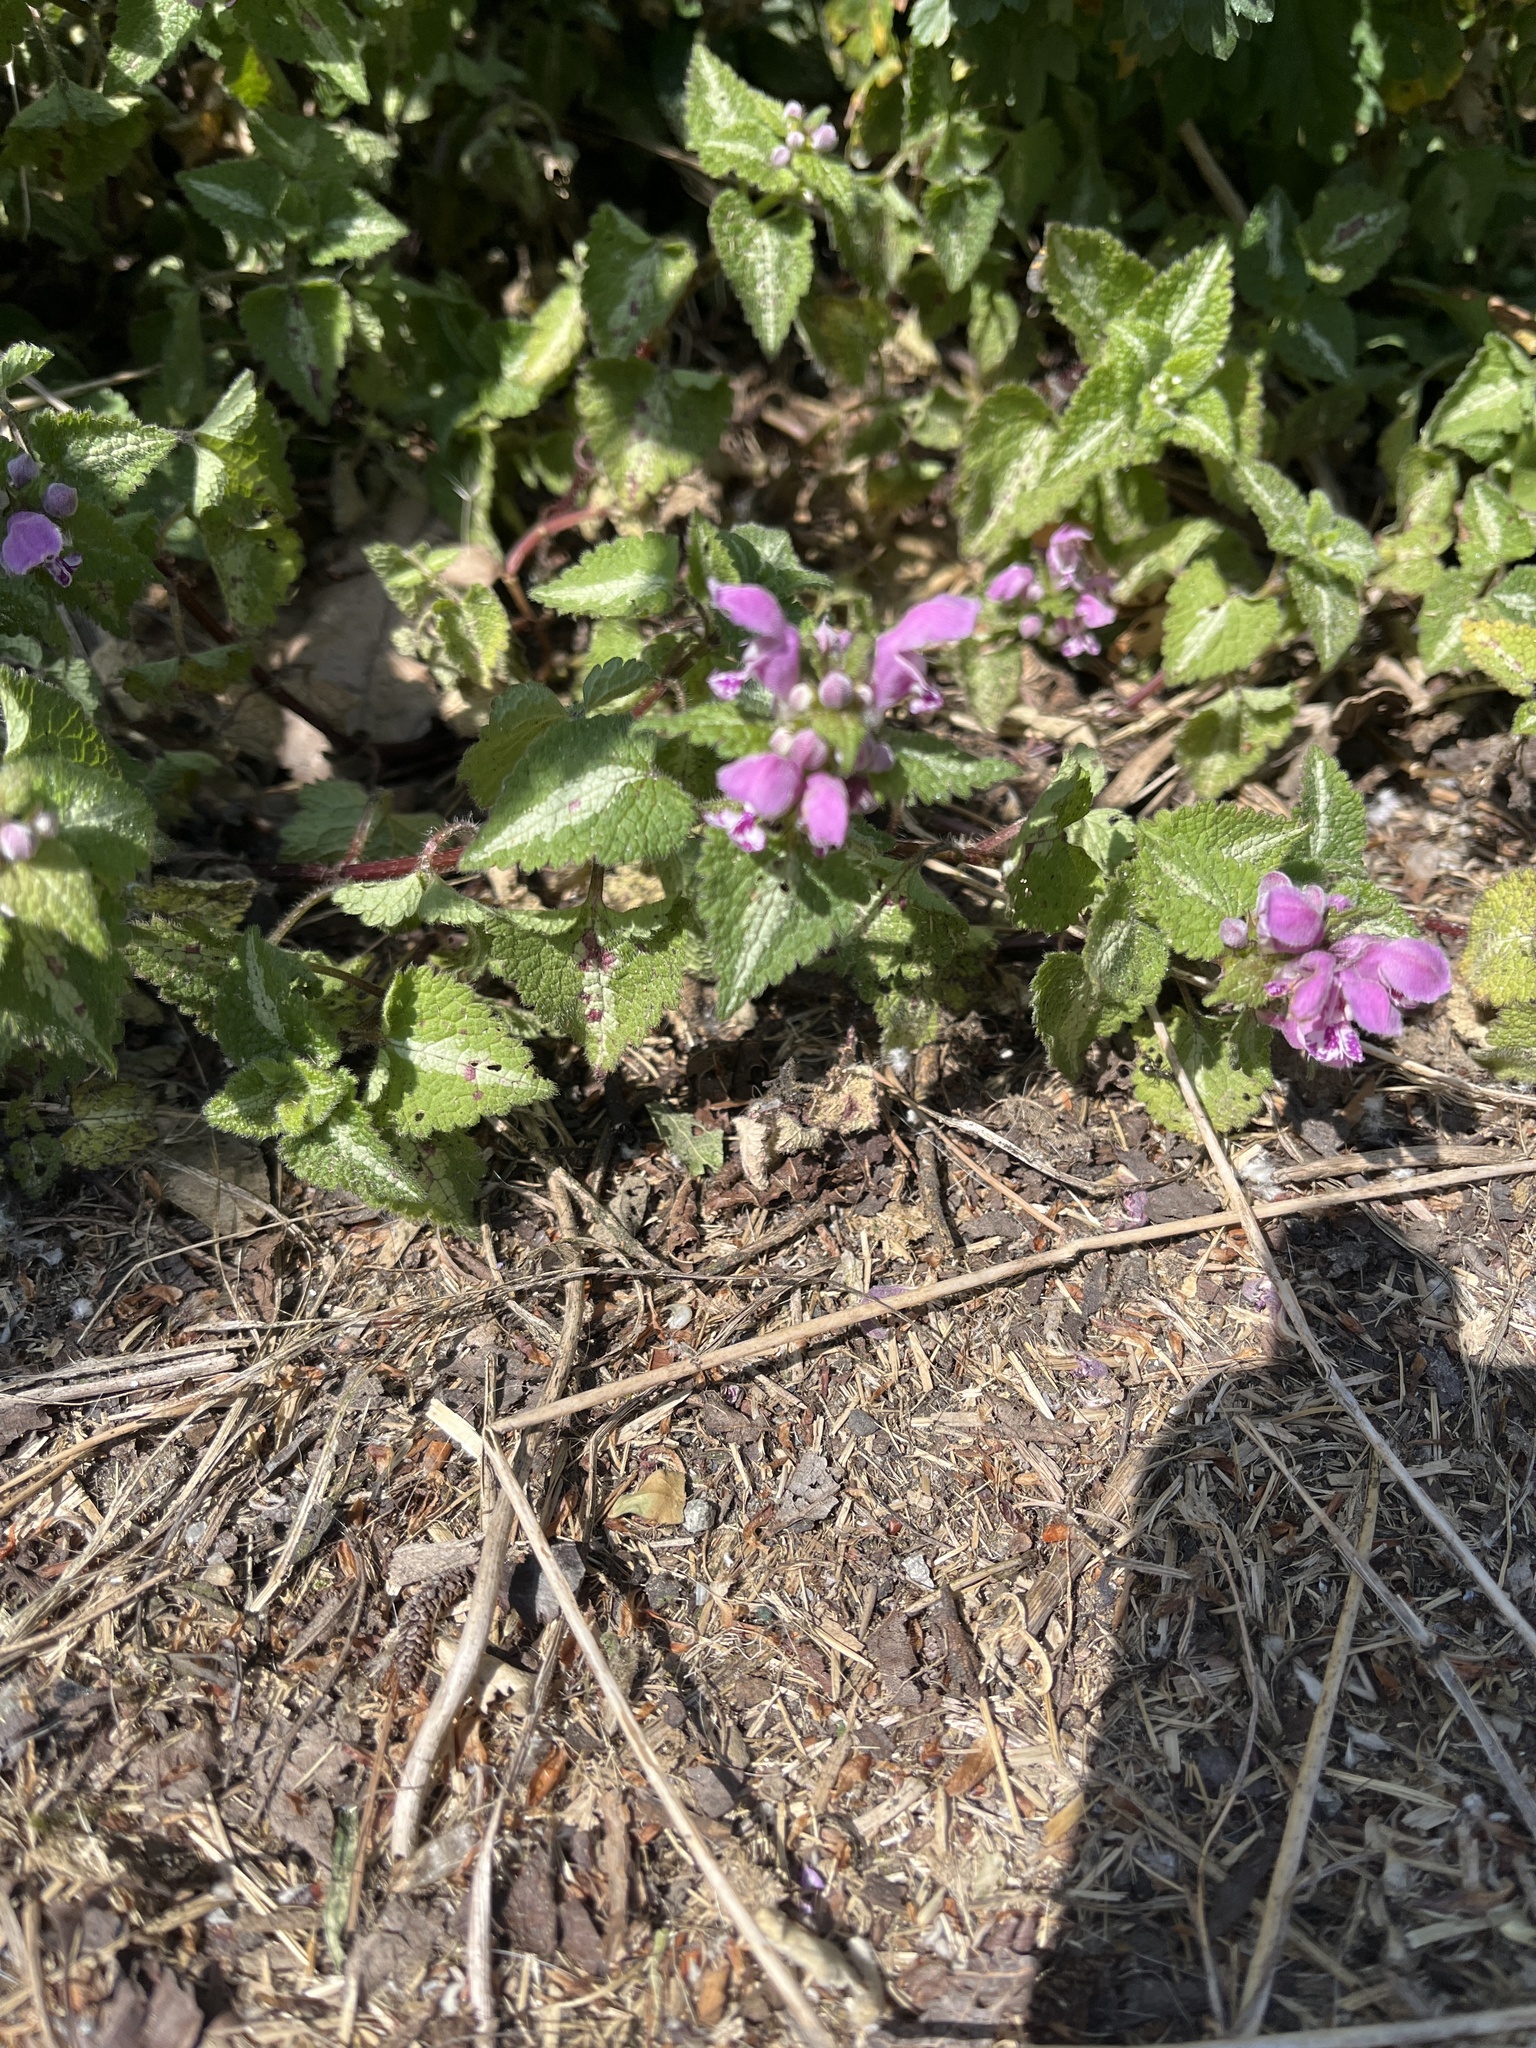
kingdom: Plantae
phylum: Tracheophyta
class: Magnoliopsida
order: Lamiales
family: Lamiaceae
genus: Lamium
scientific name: Lamium maculatum
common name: Spotted dead-nettle
